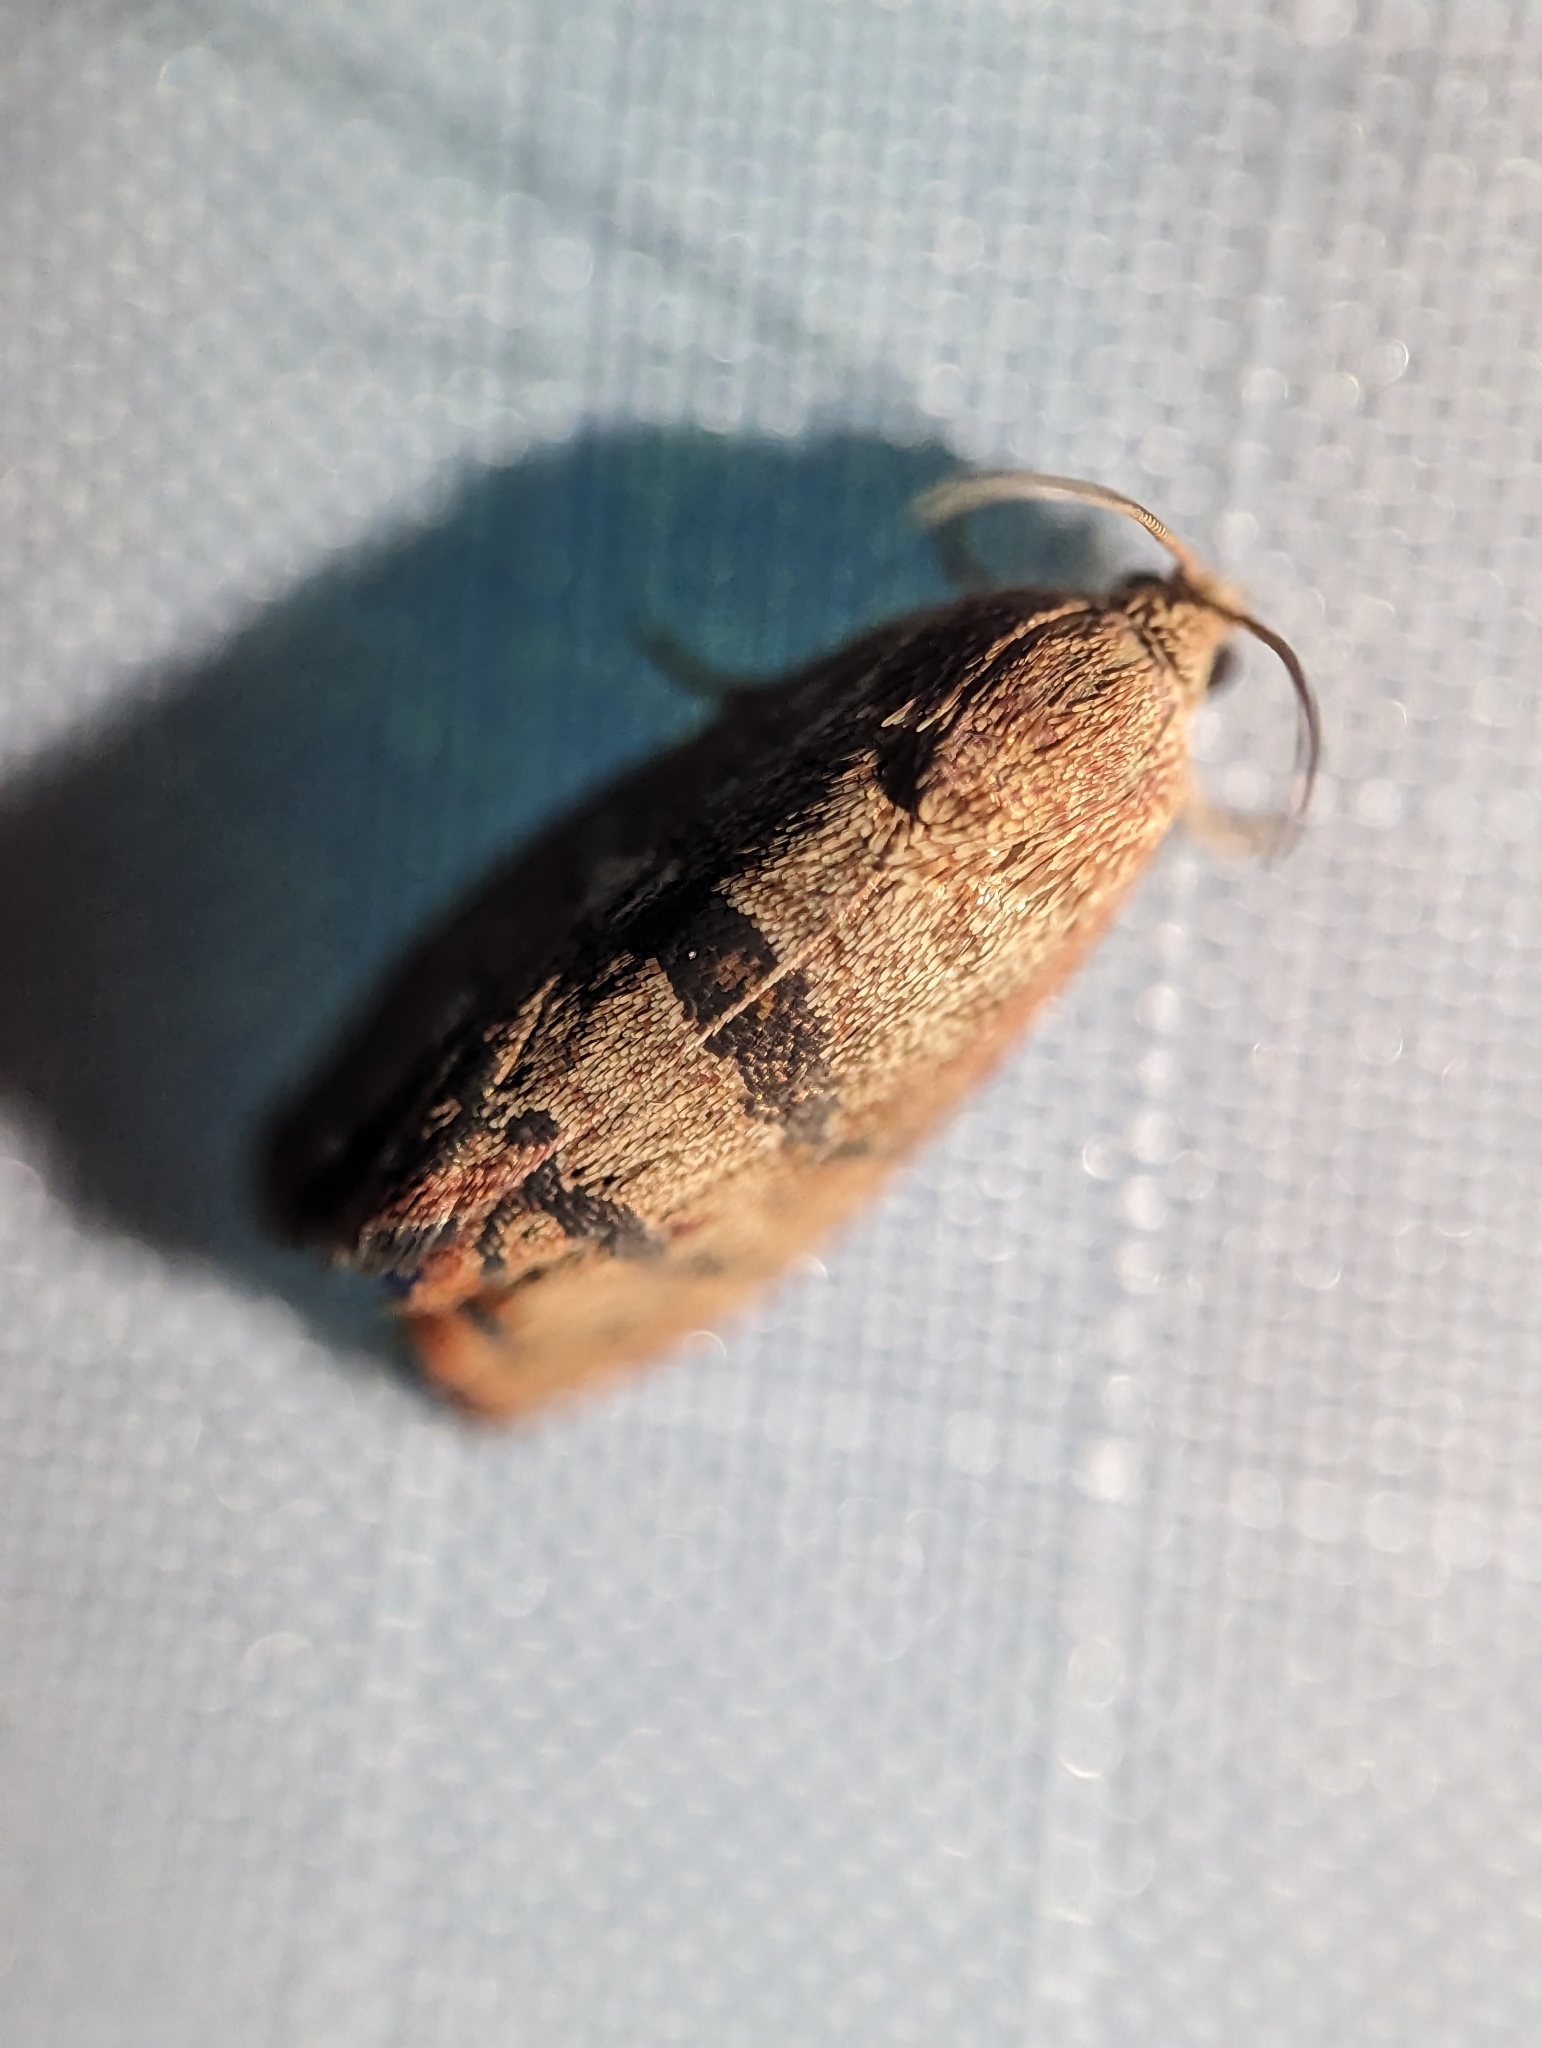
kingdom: Animalia
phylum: Arthropoda
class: Insecta
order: Lepidoptera
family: Tortricidae
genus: Cydia
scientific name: Cydia latiferreana
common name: Filbertworm moth
